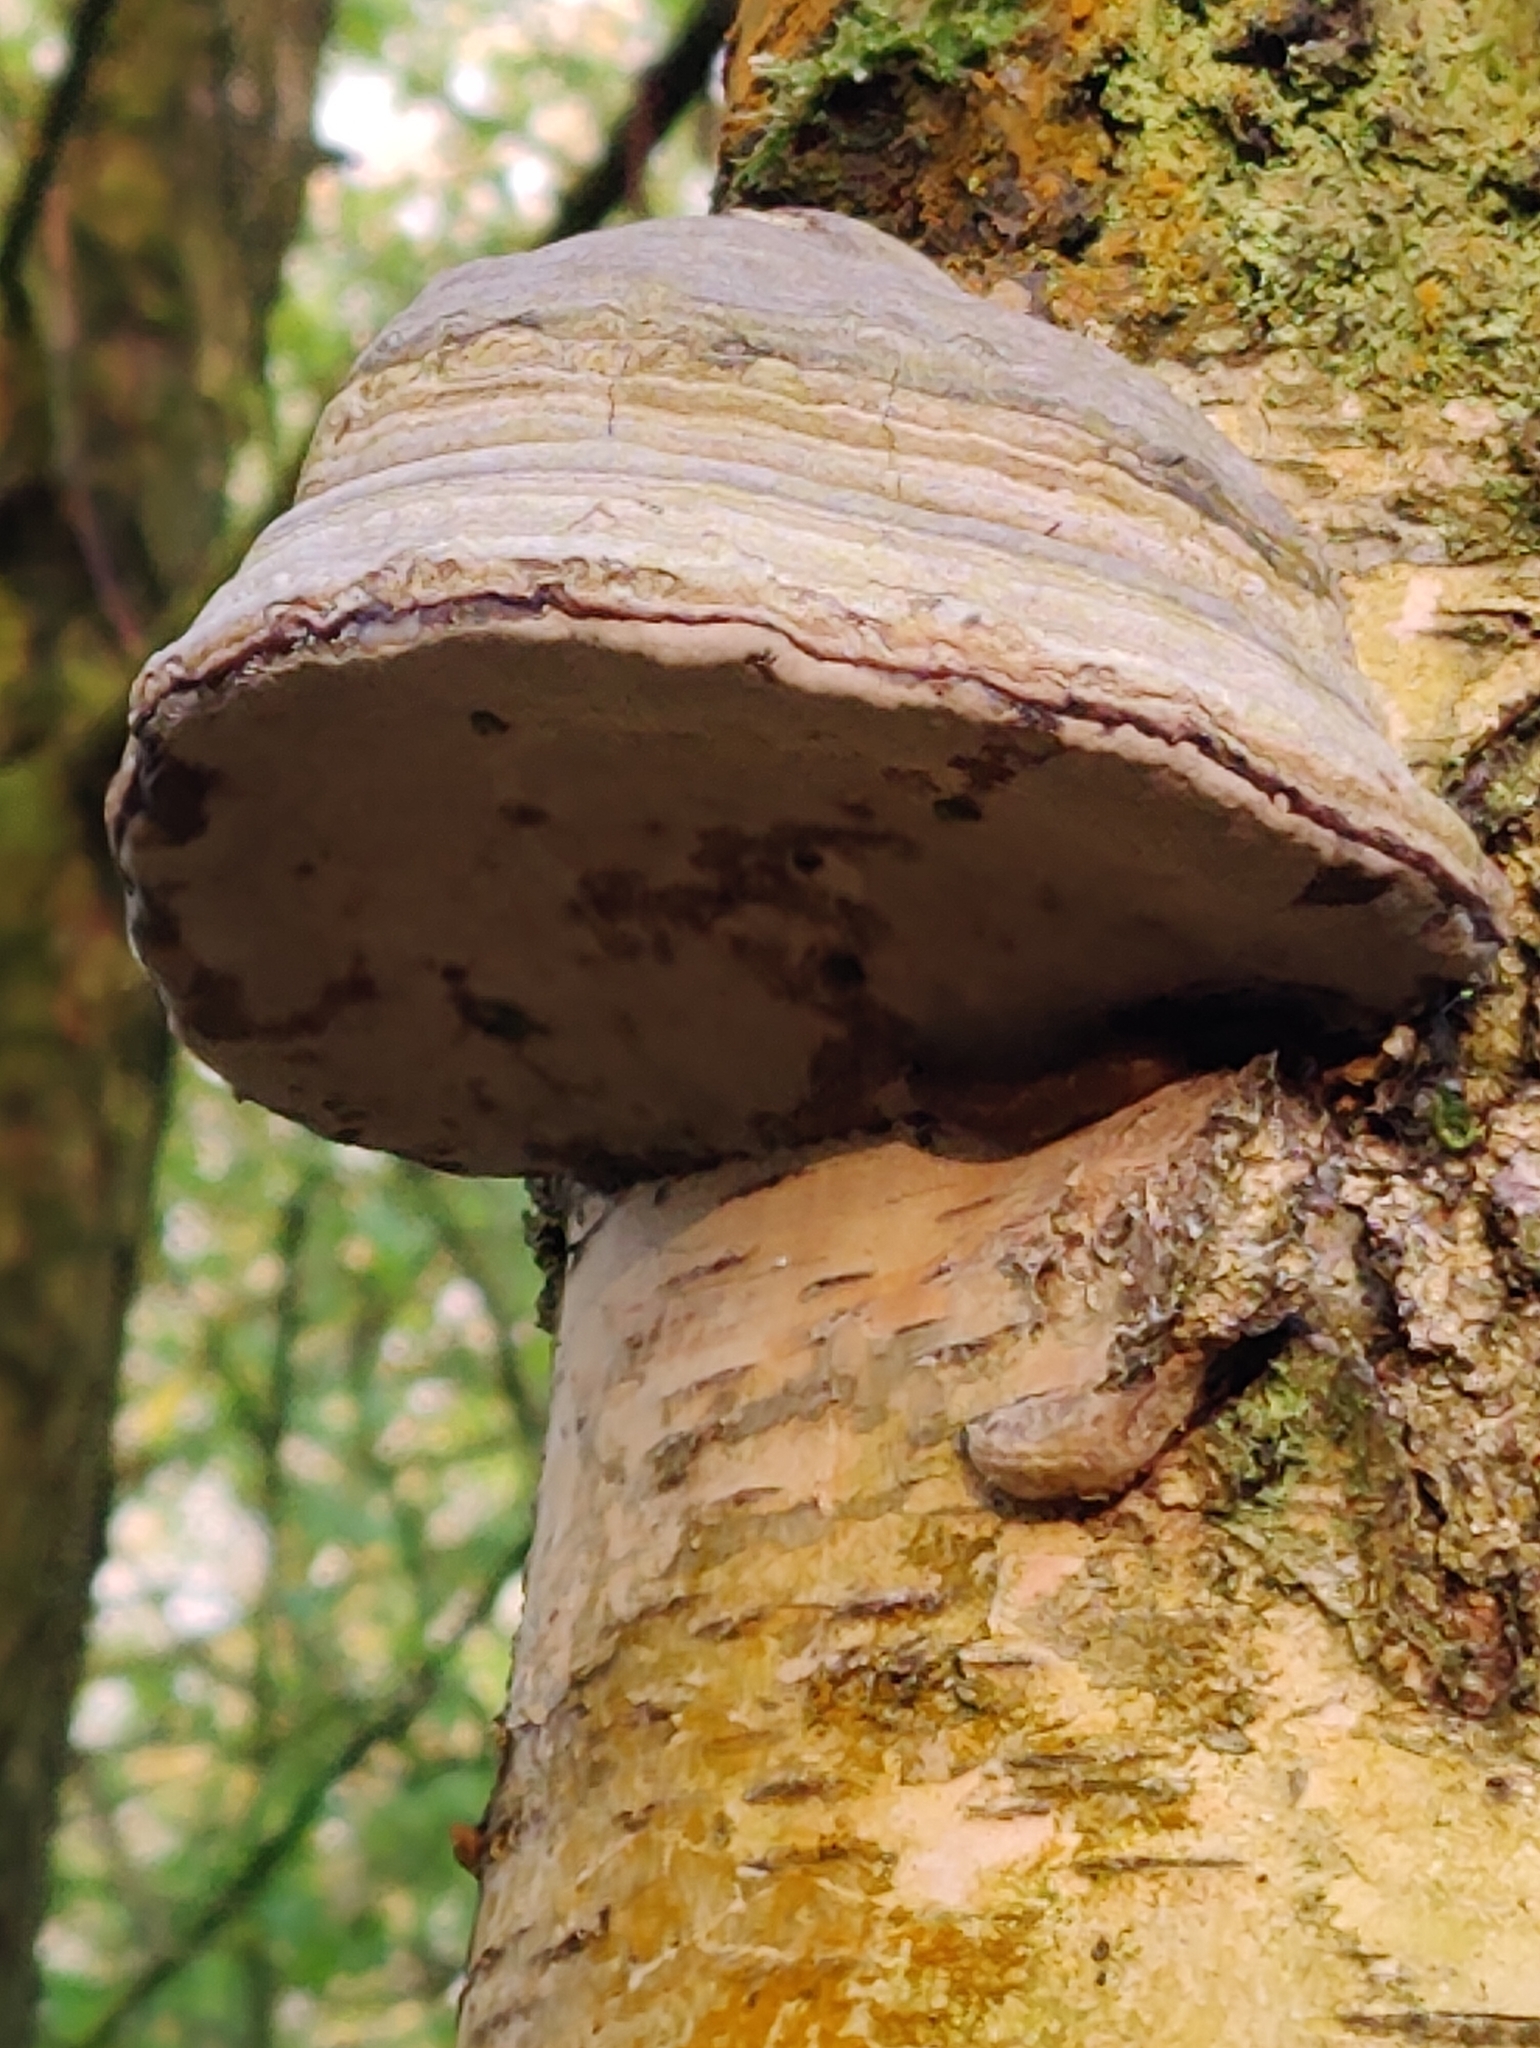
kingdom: Fungi
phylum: Basidiomycota
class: Agaricomycetes
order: Polyporales
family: Polyporaceae
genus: Fomes
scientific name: Fomes fomentarius
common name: Hoof fungus
